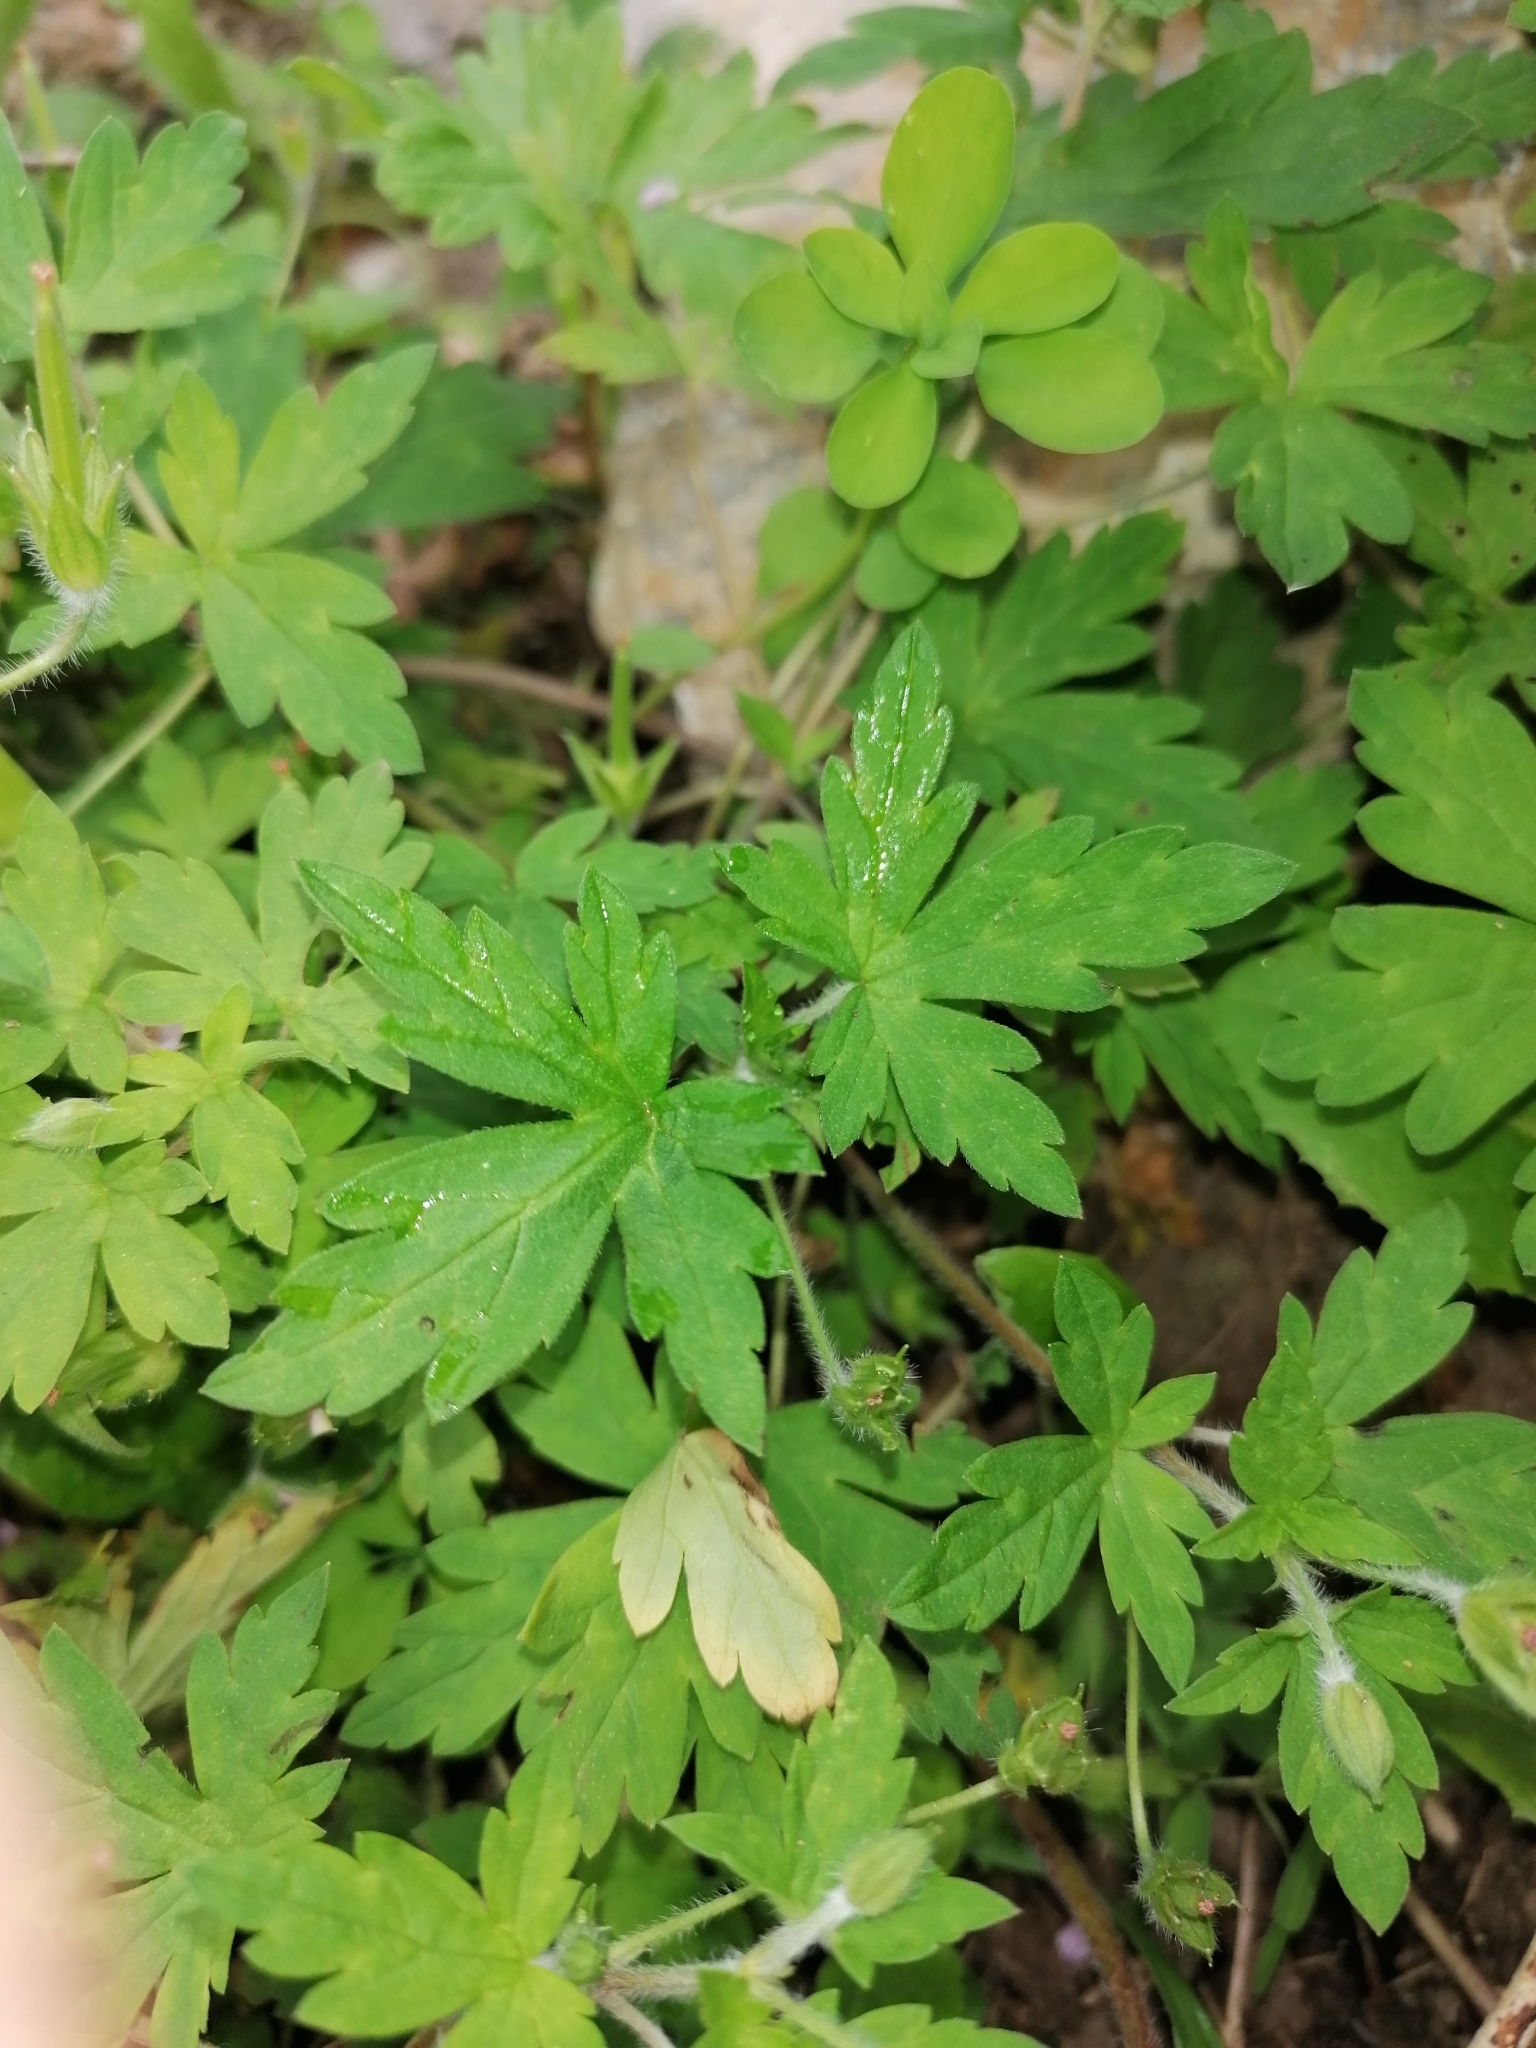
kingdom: Plantae
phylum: Tracheophyta
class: Magnoliopsida
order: Geraniales
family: Geraniaceae
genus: Geranium
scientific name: Geranium sibiricum
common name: Siberian crane's-bill
